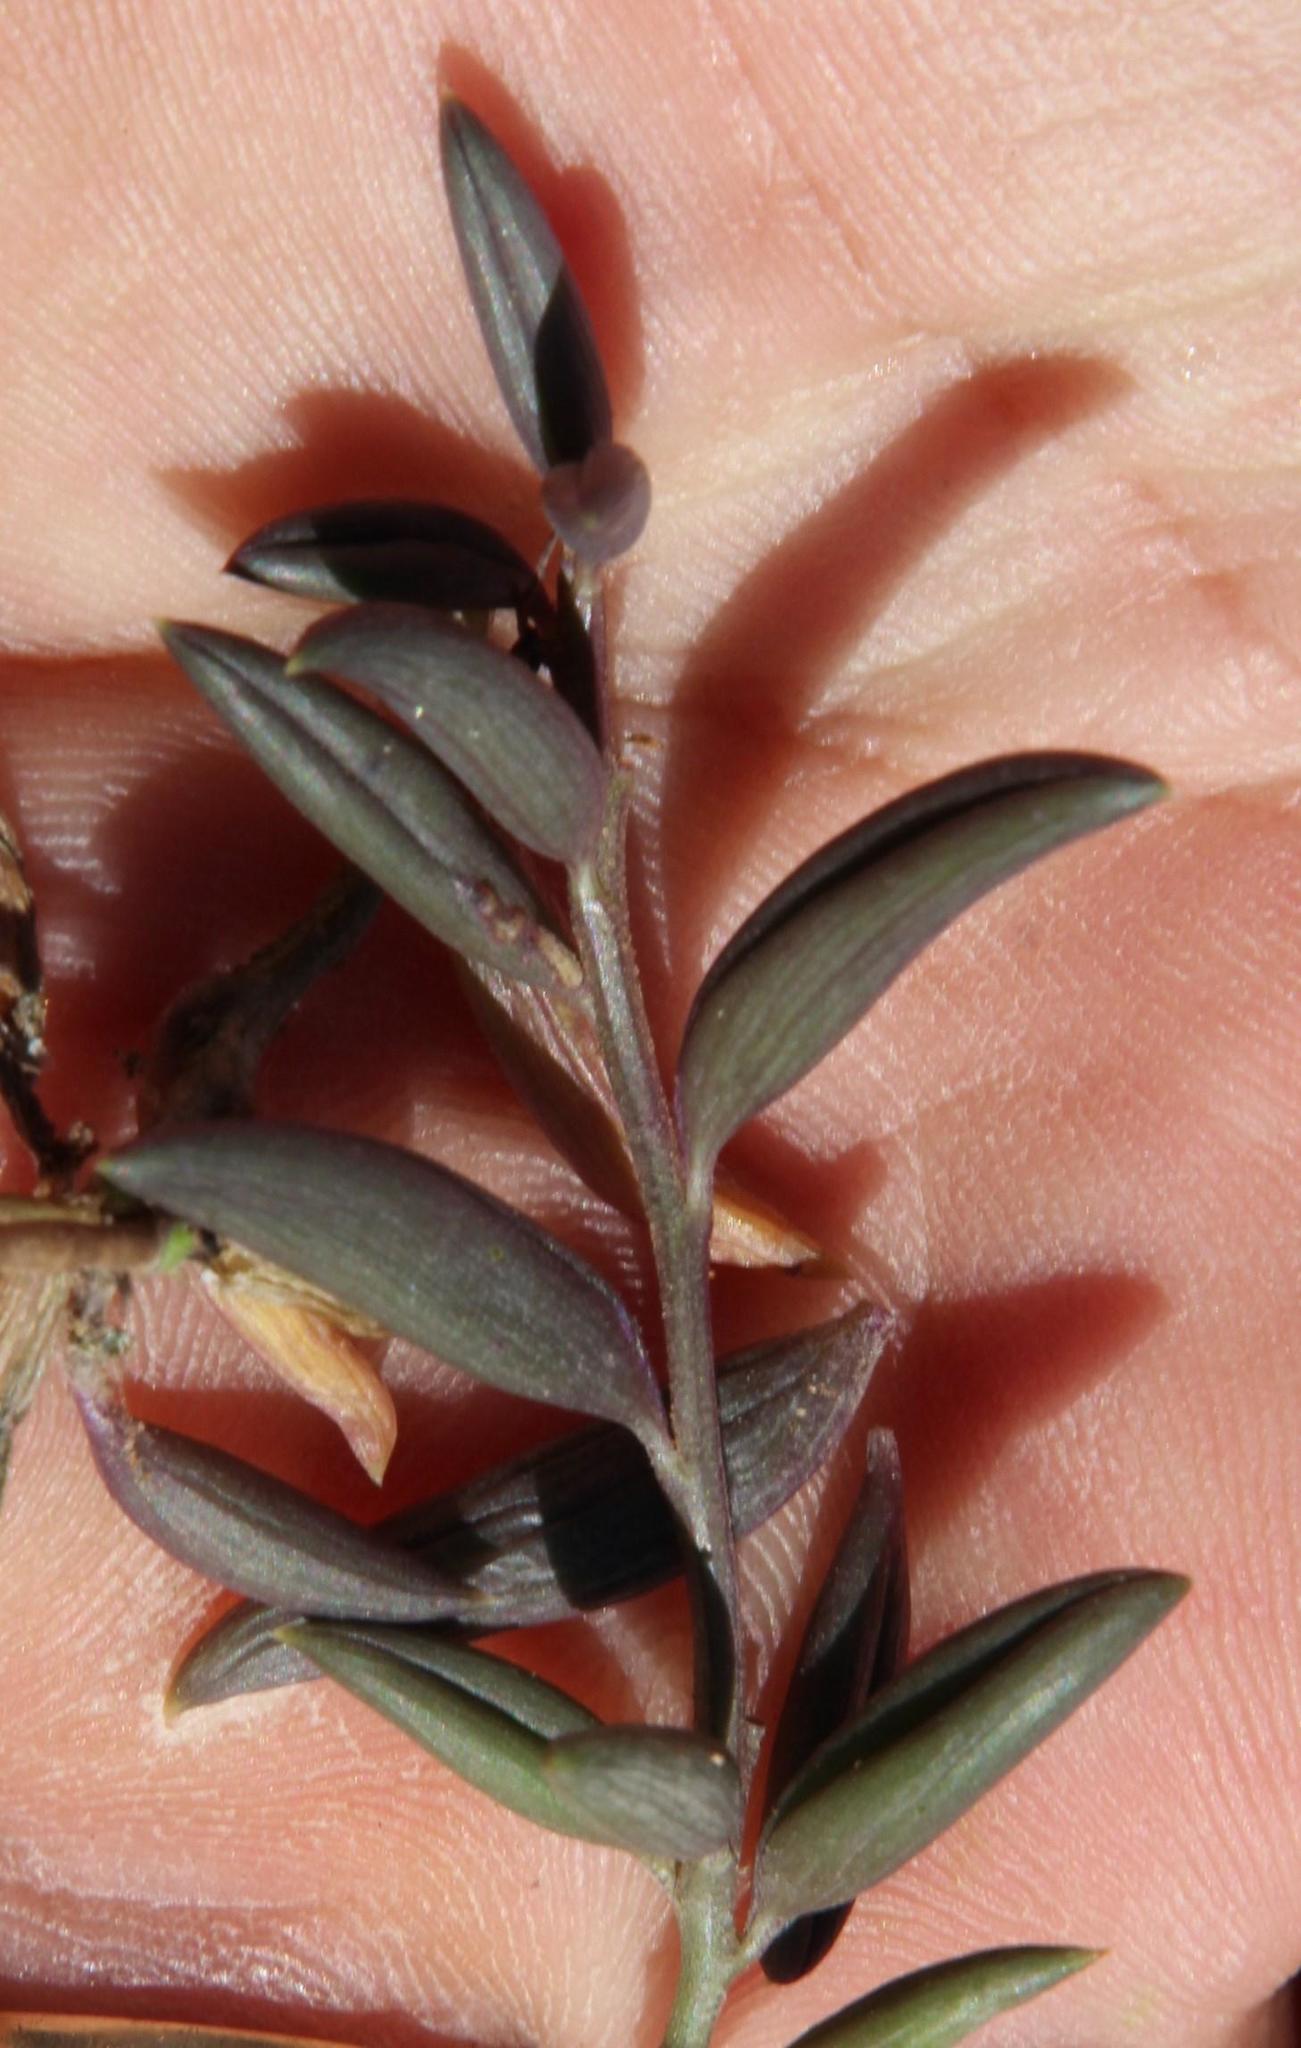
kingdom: Plantae
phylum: Tracheophyta
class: Magnoliopsida
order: Asterales
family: Asteraceae
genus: Curio
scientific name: Curio radicans
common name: Creeping-berry
